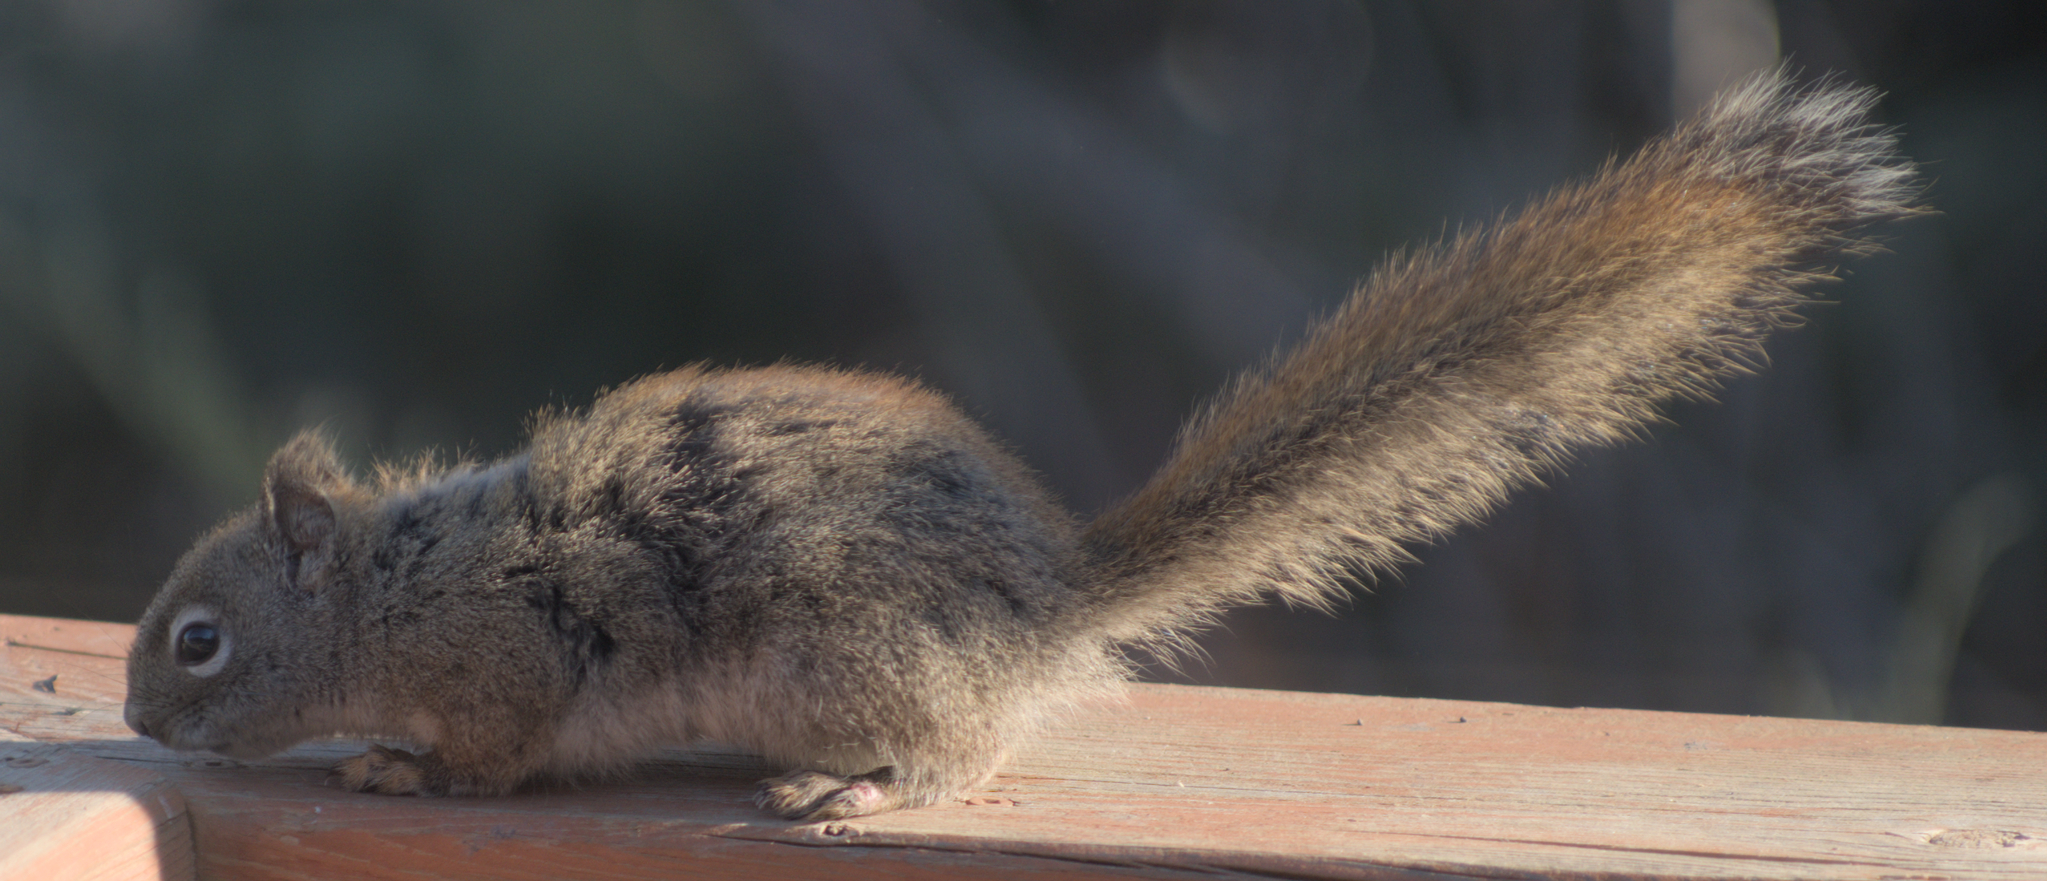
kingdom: Animalia
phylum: Chordata
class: Mammalia
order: Rodentia
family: Sciuridae
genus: Tamiasciurus
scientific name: Tamiasciurus hudsonicus
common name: Red squirrel
